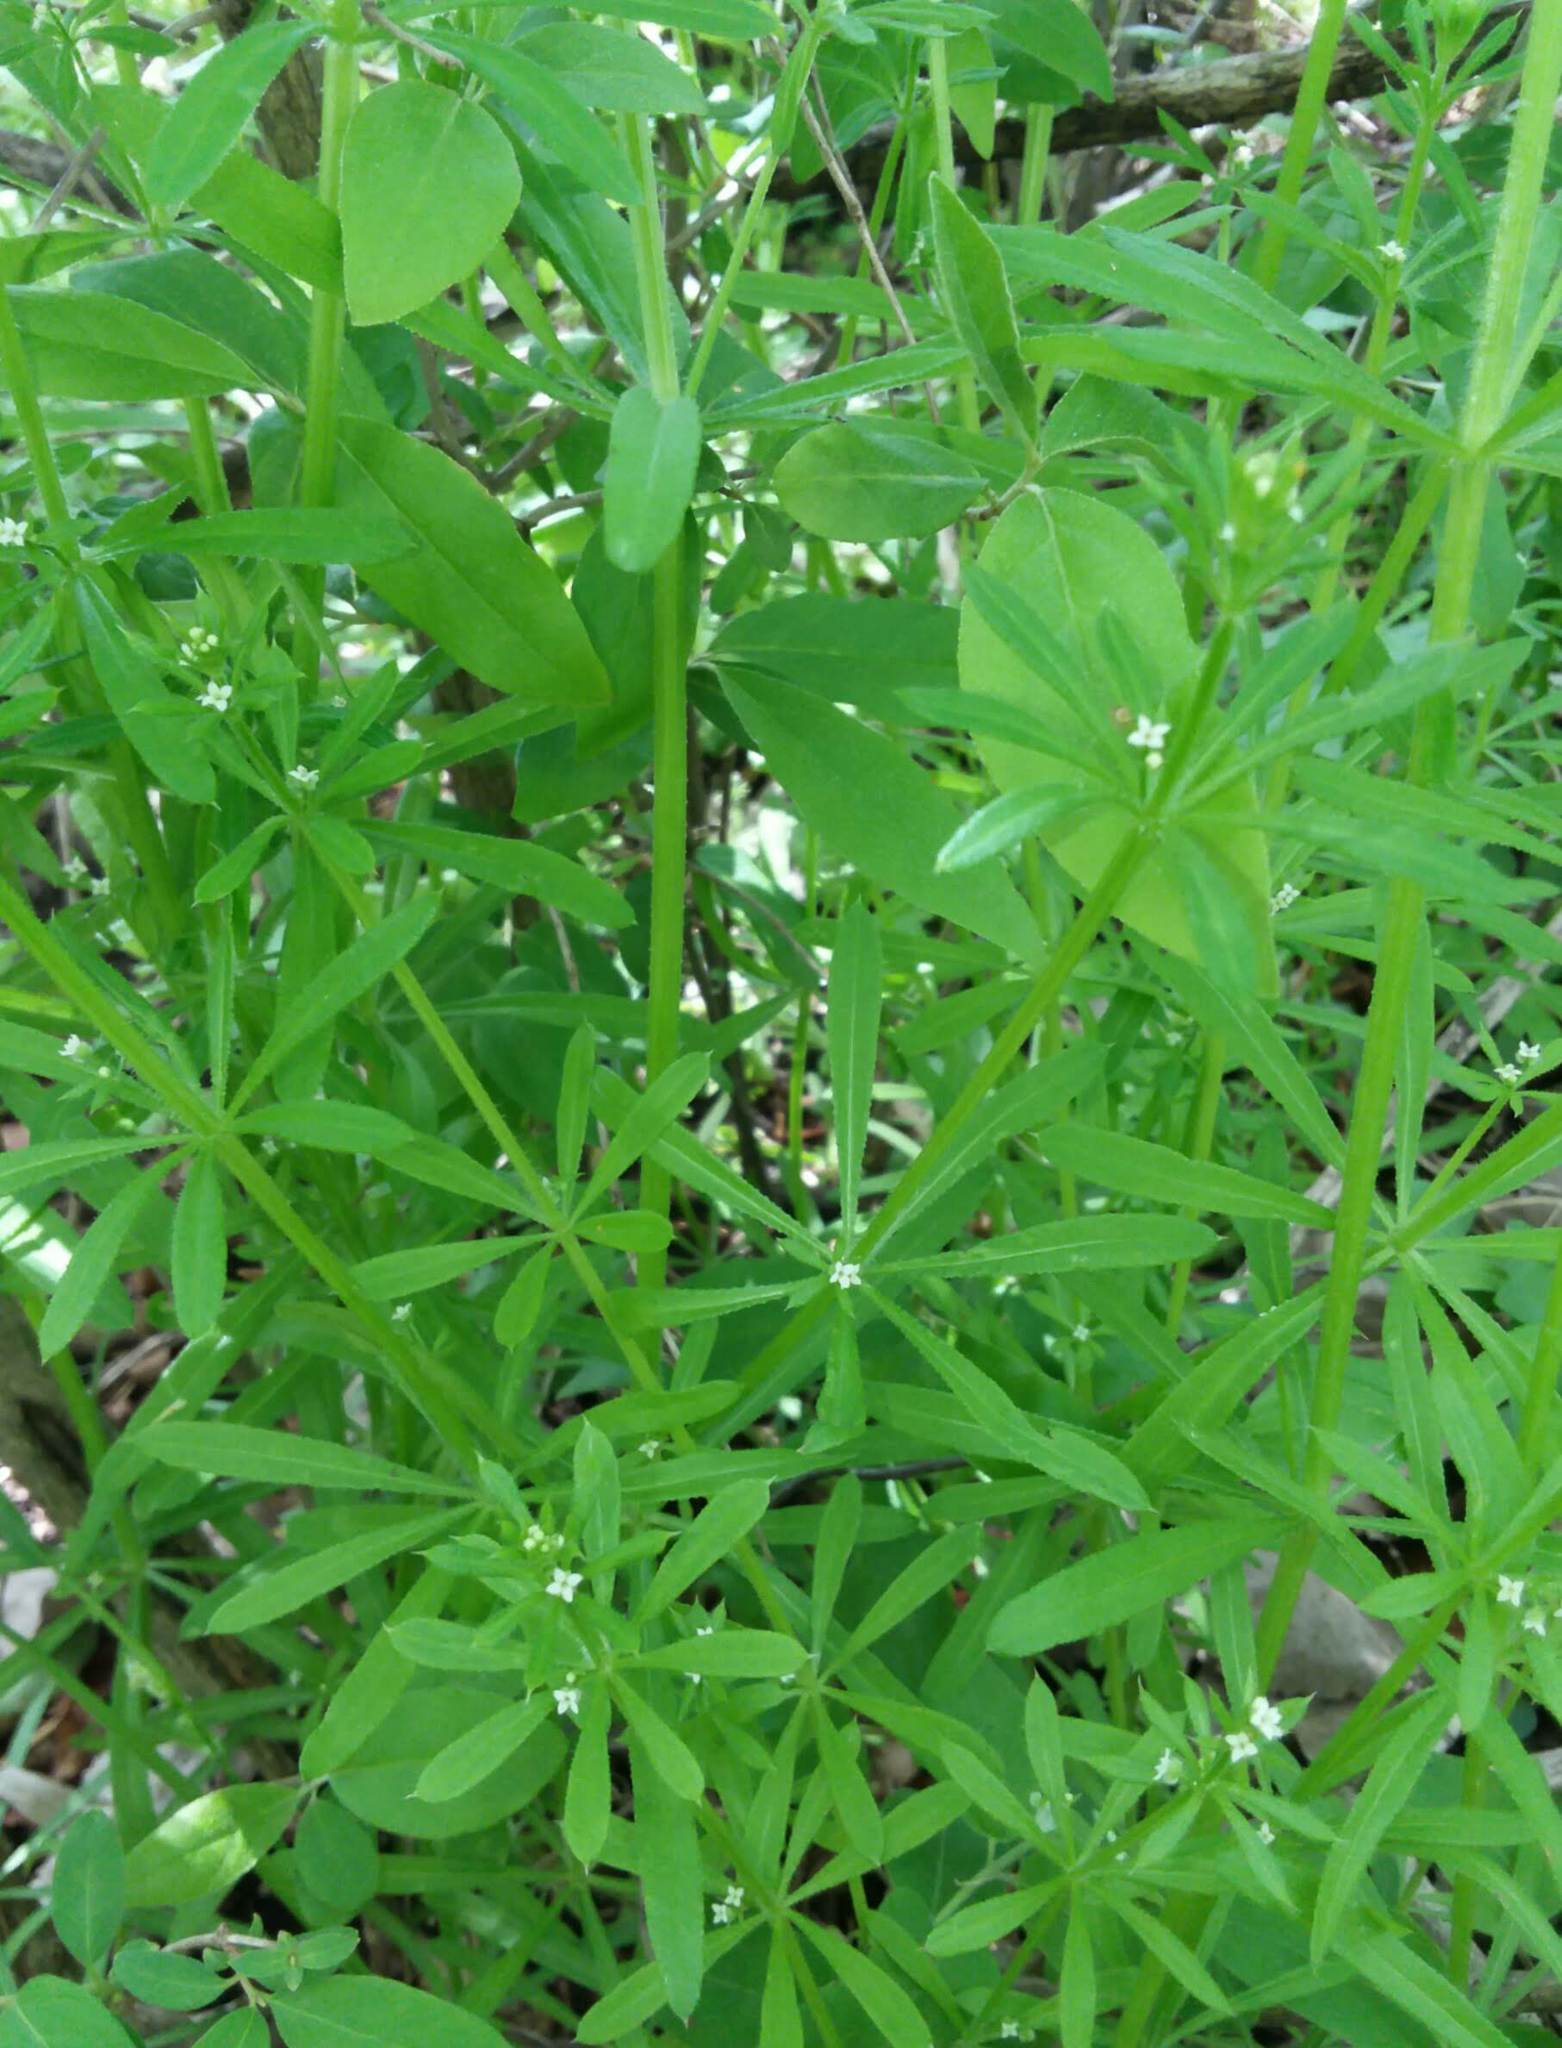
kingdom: Plantae
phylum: Tracheophyta
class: Magnoliopsida
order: Gentianales
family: Rubiaceae
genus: Galium
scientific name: Galium aparine
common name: Cleavers
